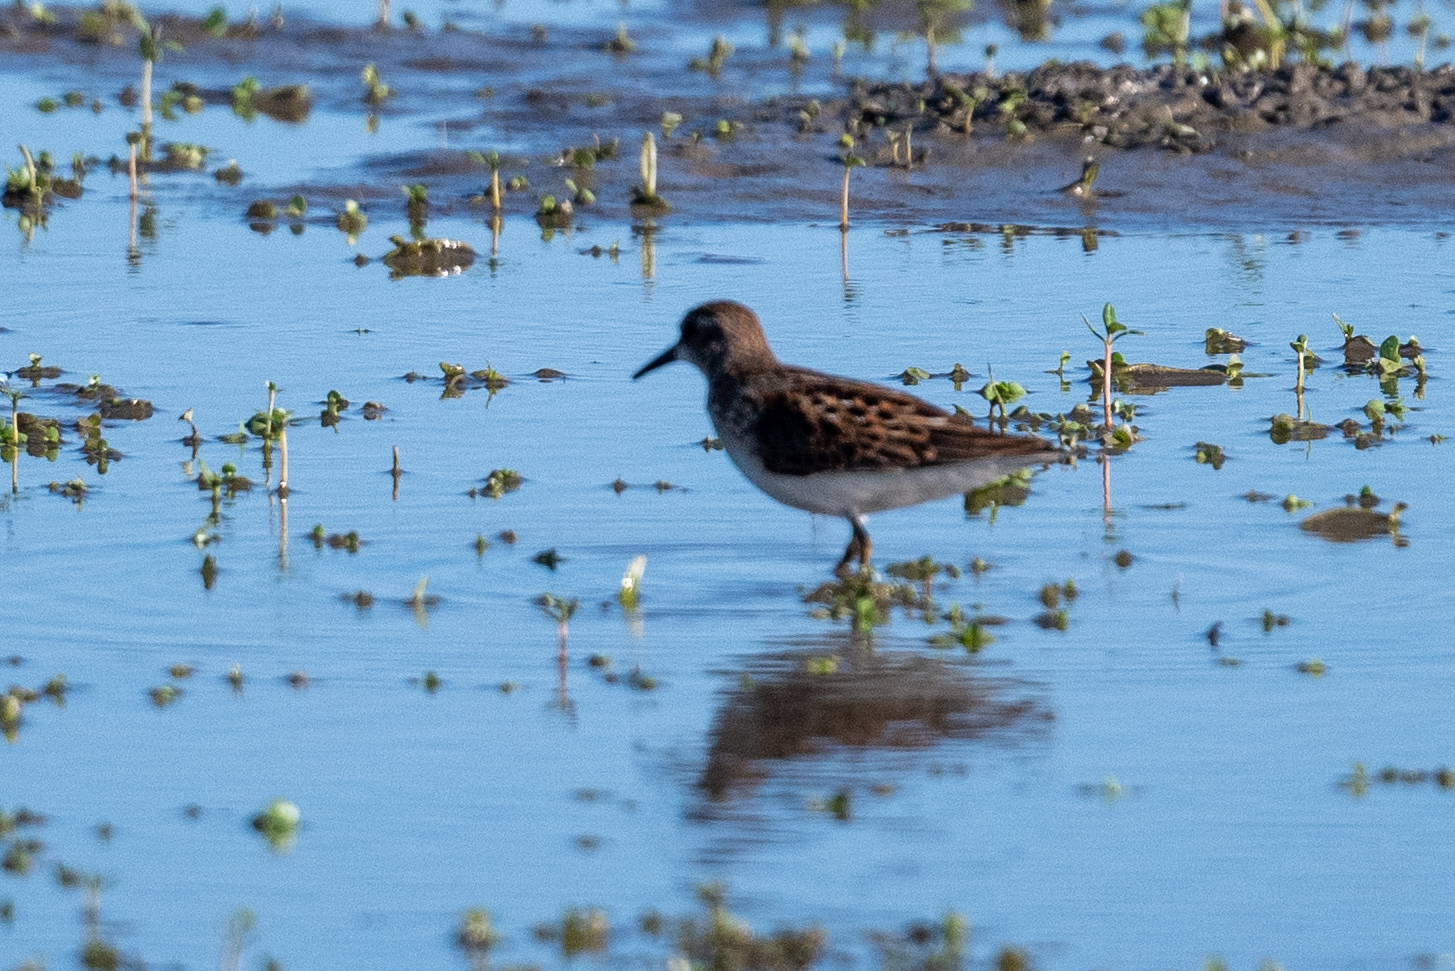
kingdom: Animalia
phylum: Chordata
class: Aves
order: Charadriiformes
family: Scolopacidae
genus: Calidris
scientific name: Calidris minutilla
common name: Least sandpiper
